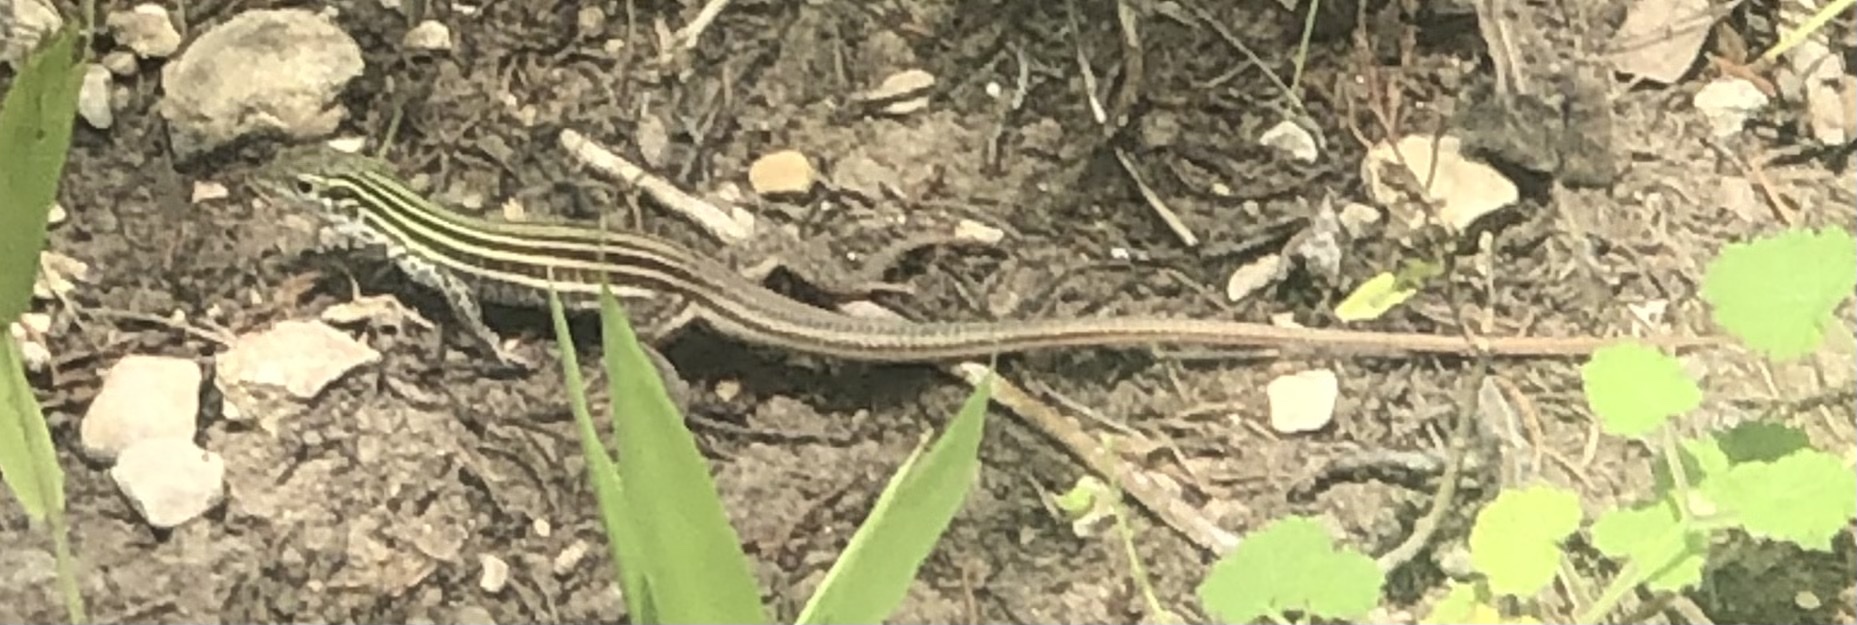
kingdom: Animalia
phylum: Chordata
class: Squamata
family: Teiidae
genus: Aspidoscelis
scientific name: Aspidoscelis gularis
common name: Eastern spotted whiptail
